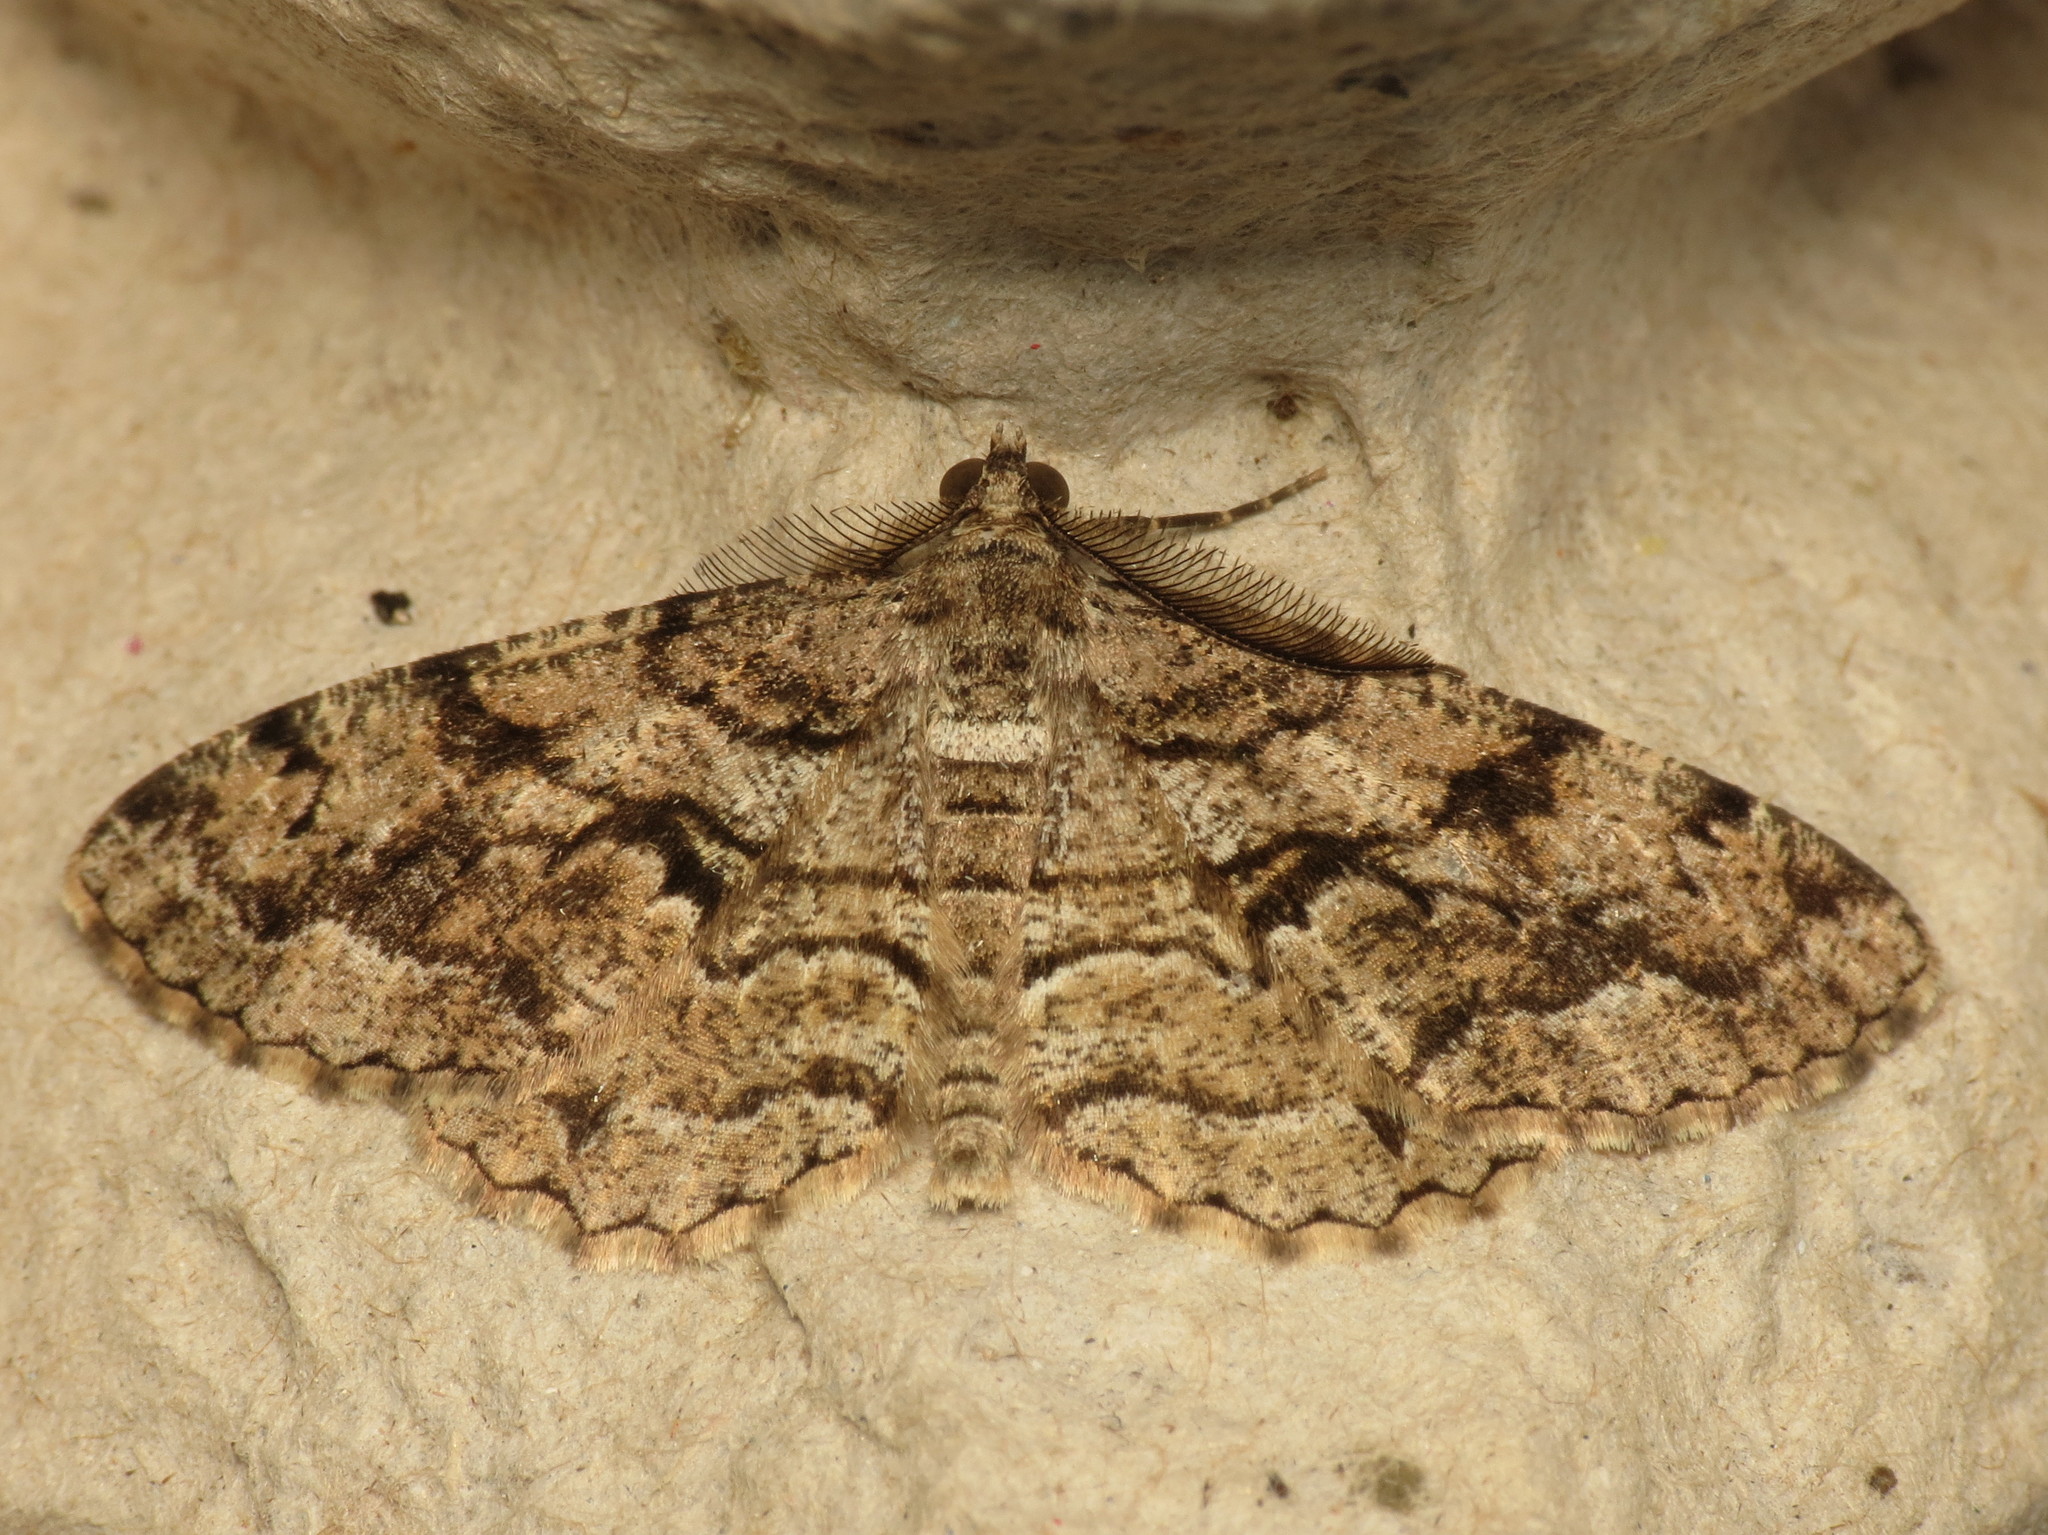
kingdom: Animalia
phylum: Arthropoda
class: Insecta
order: Lepidoptera
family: Geometridae
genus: Peribatodes
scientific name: Peribatodes secundaria
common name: Feathered beauty
